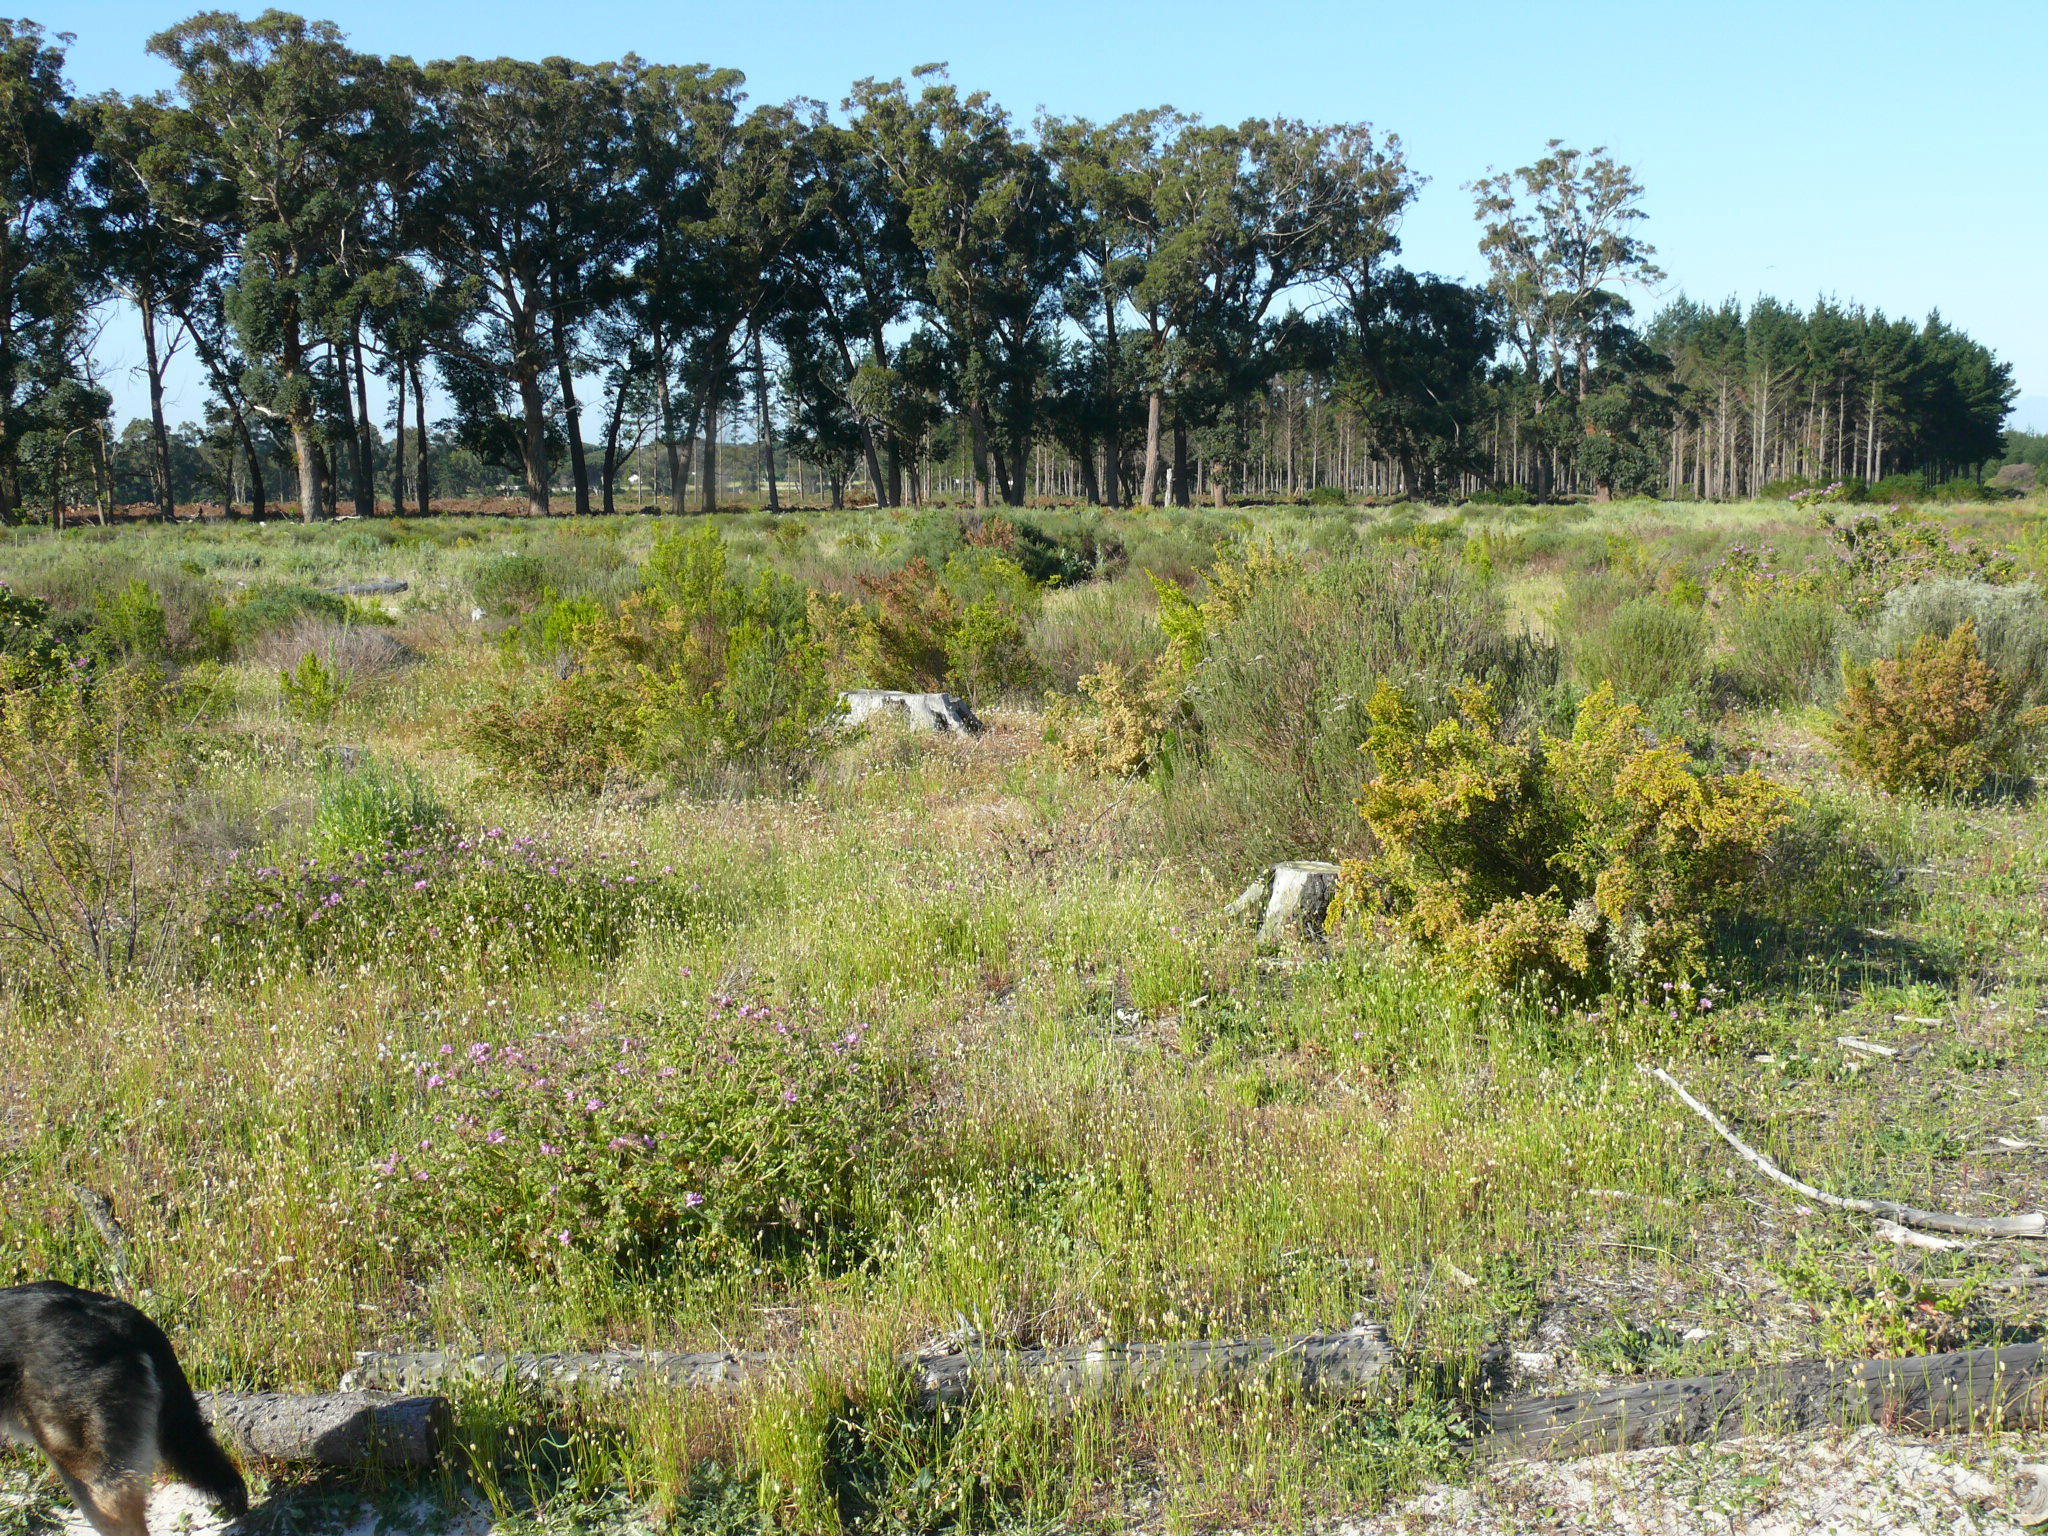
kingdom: Plantae
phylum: Tracheophyta
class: Magnoliopsida
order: Malvales
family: Thymelaeaceae
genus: Passerina
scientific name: Passerina corymbosa
